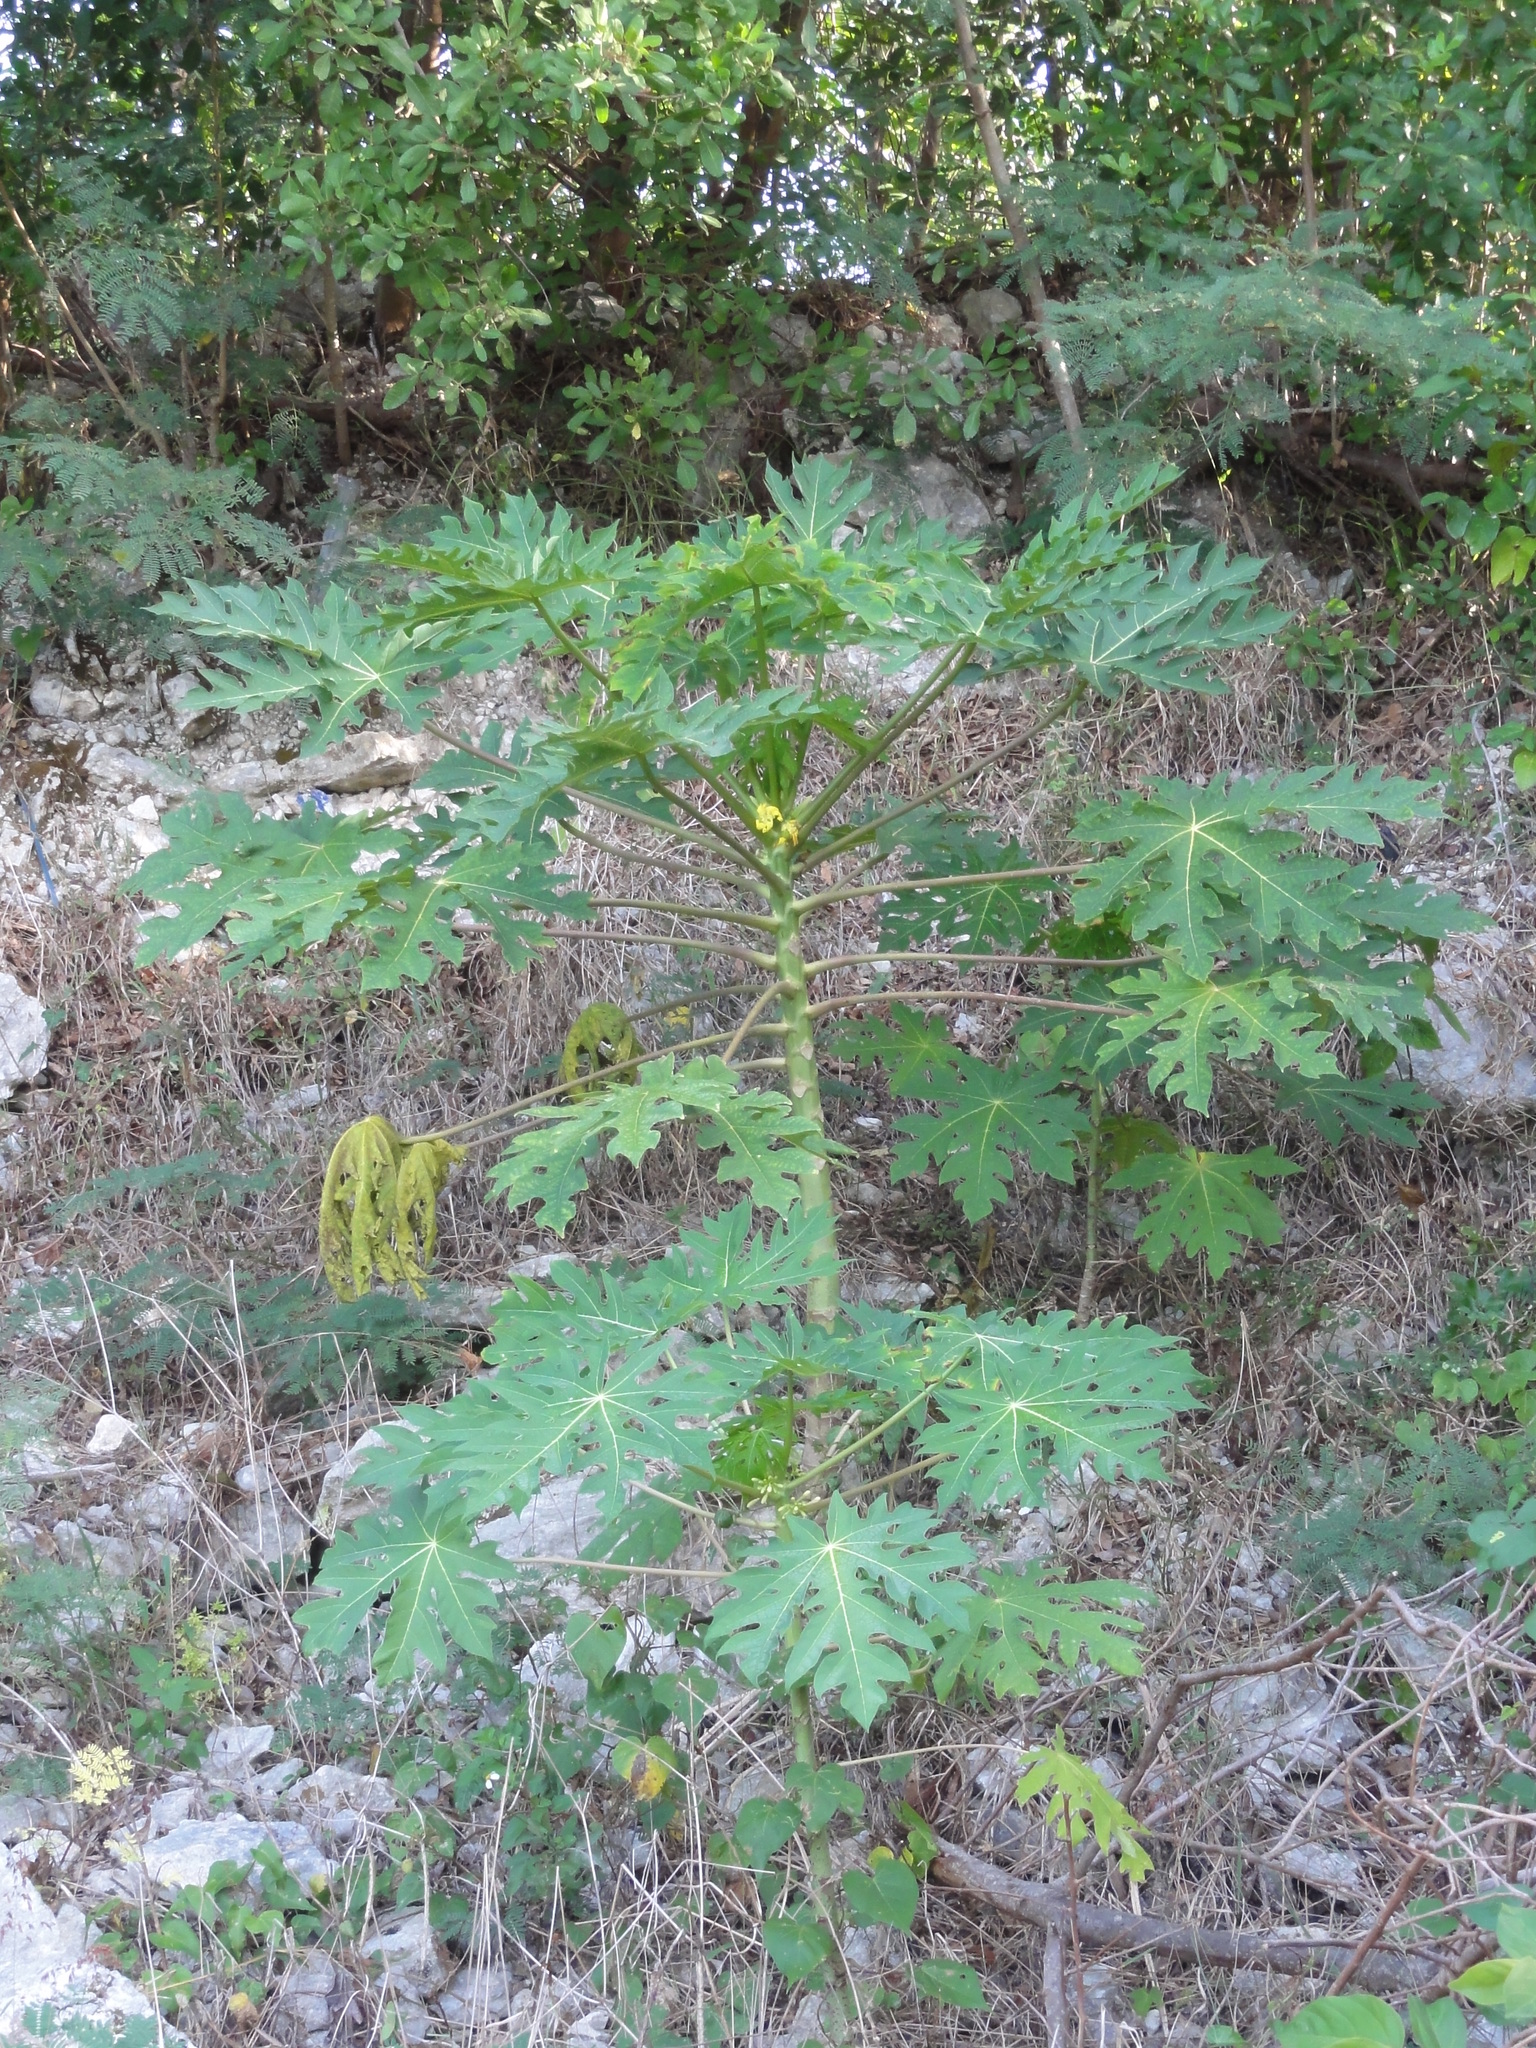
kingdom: Plantae
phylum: Tracheophyta
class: Magnoliopsida
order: Brassicales
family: Caricaceae
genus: Carica
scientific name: Carica papaya
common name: Papaya
